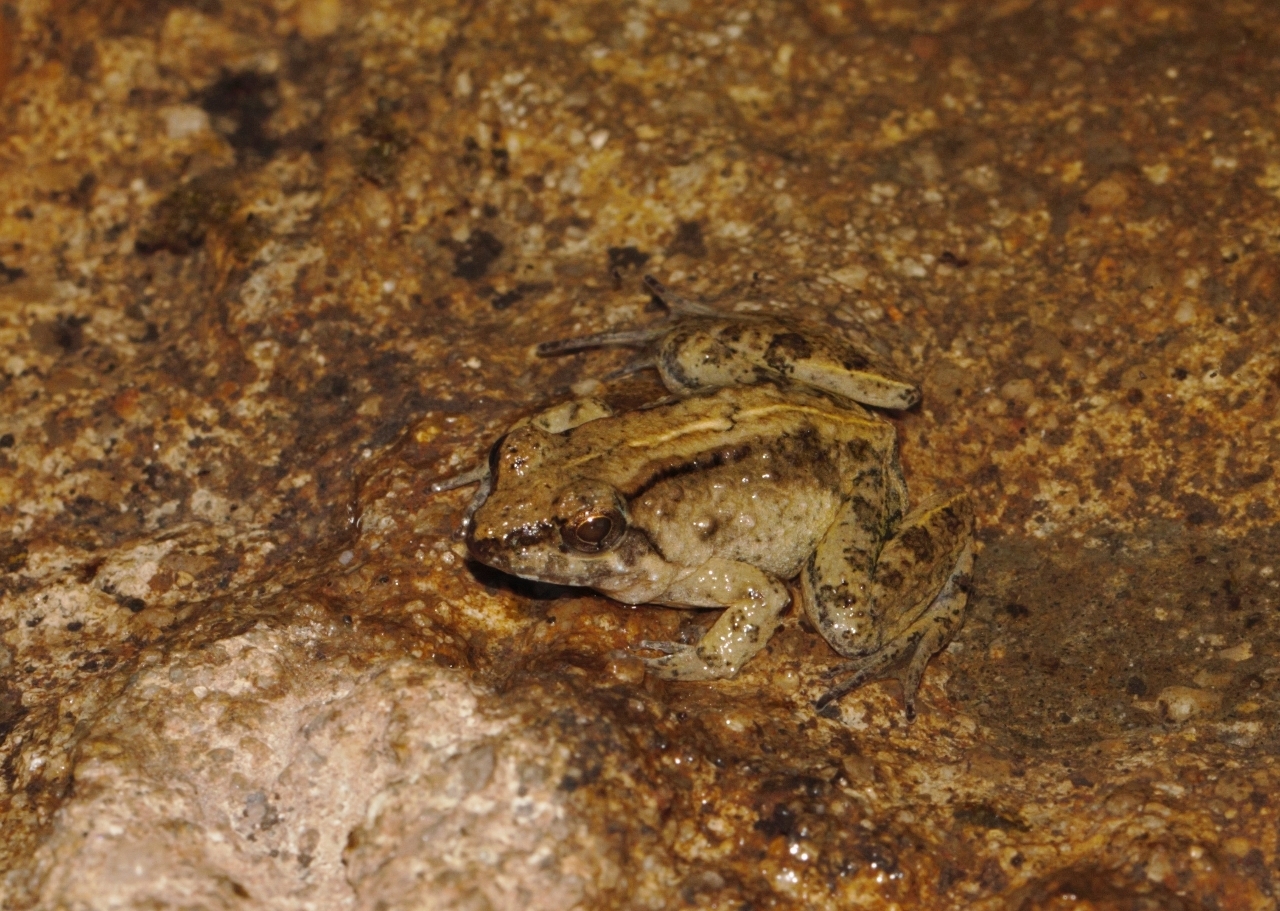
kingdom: Animalia
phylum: Chordata
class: Amphibia
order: Anura
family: Phrynobatrachidae
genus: Phrynobatrachus
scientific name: Phrynobatrachus acridoides
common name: East african puddle frog
